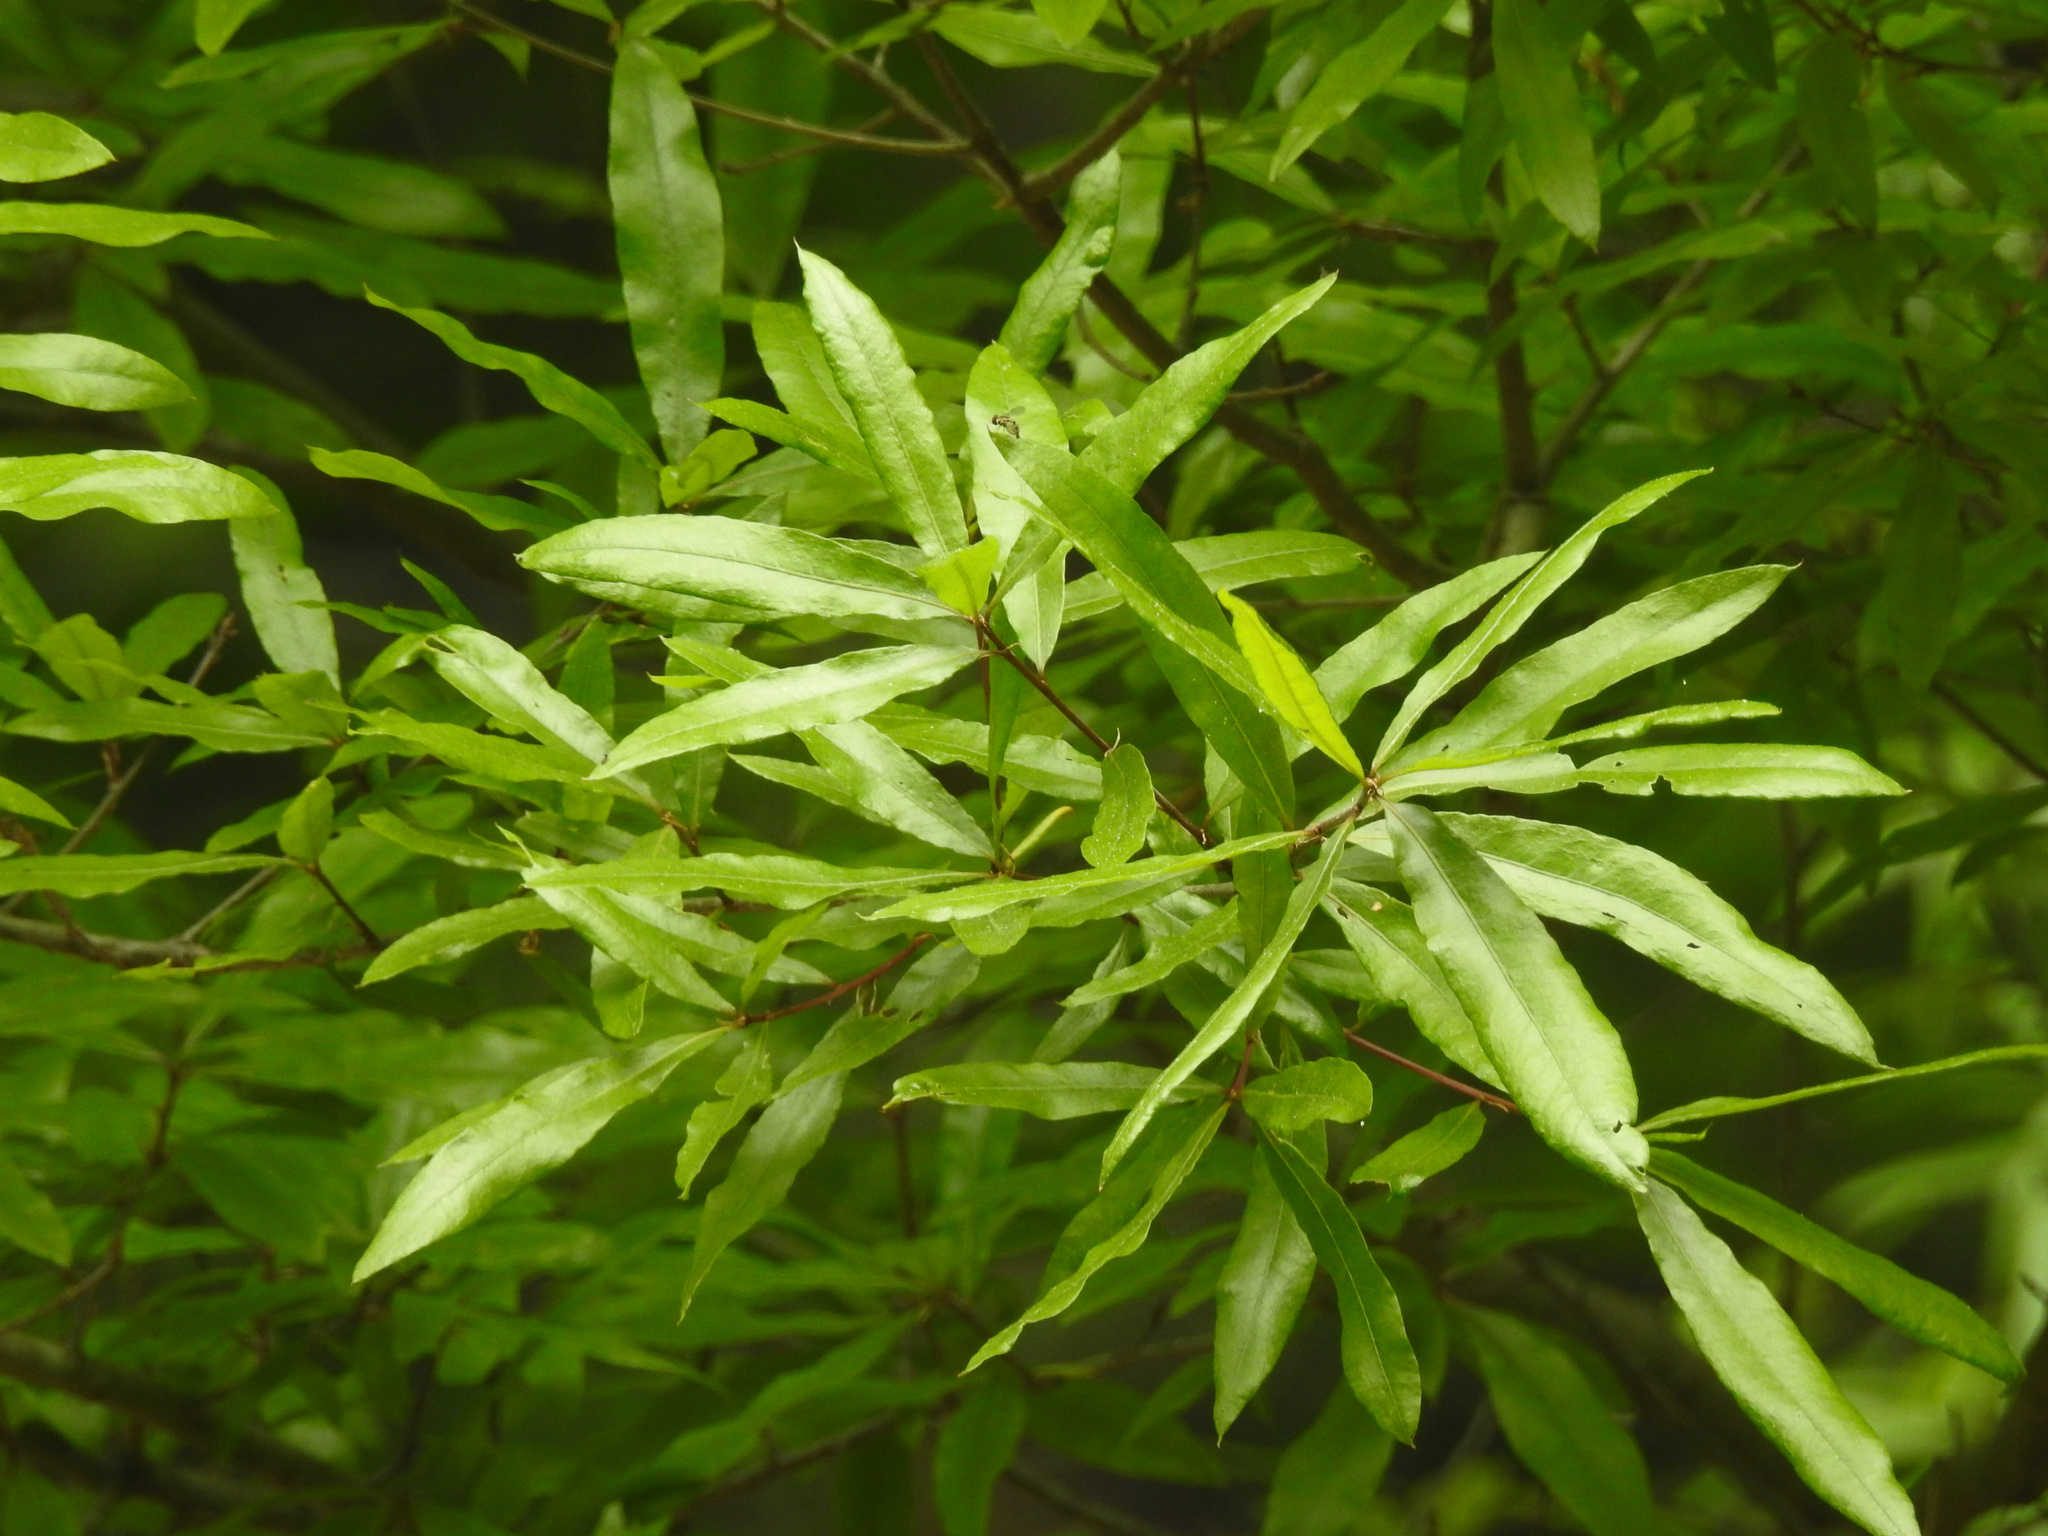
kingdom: Plantae
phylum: Tracheophyta
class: Magnoliopsida
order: Fagales
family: Fagaceae
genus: Quercus
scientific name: Quercus phellos
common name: Willow oak
